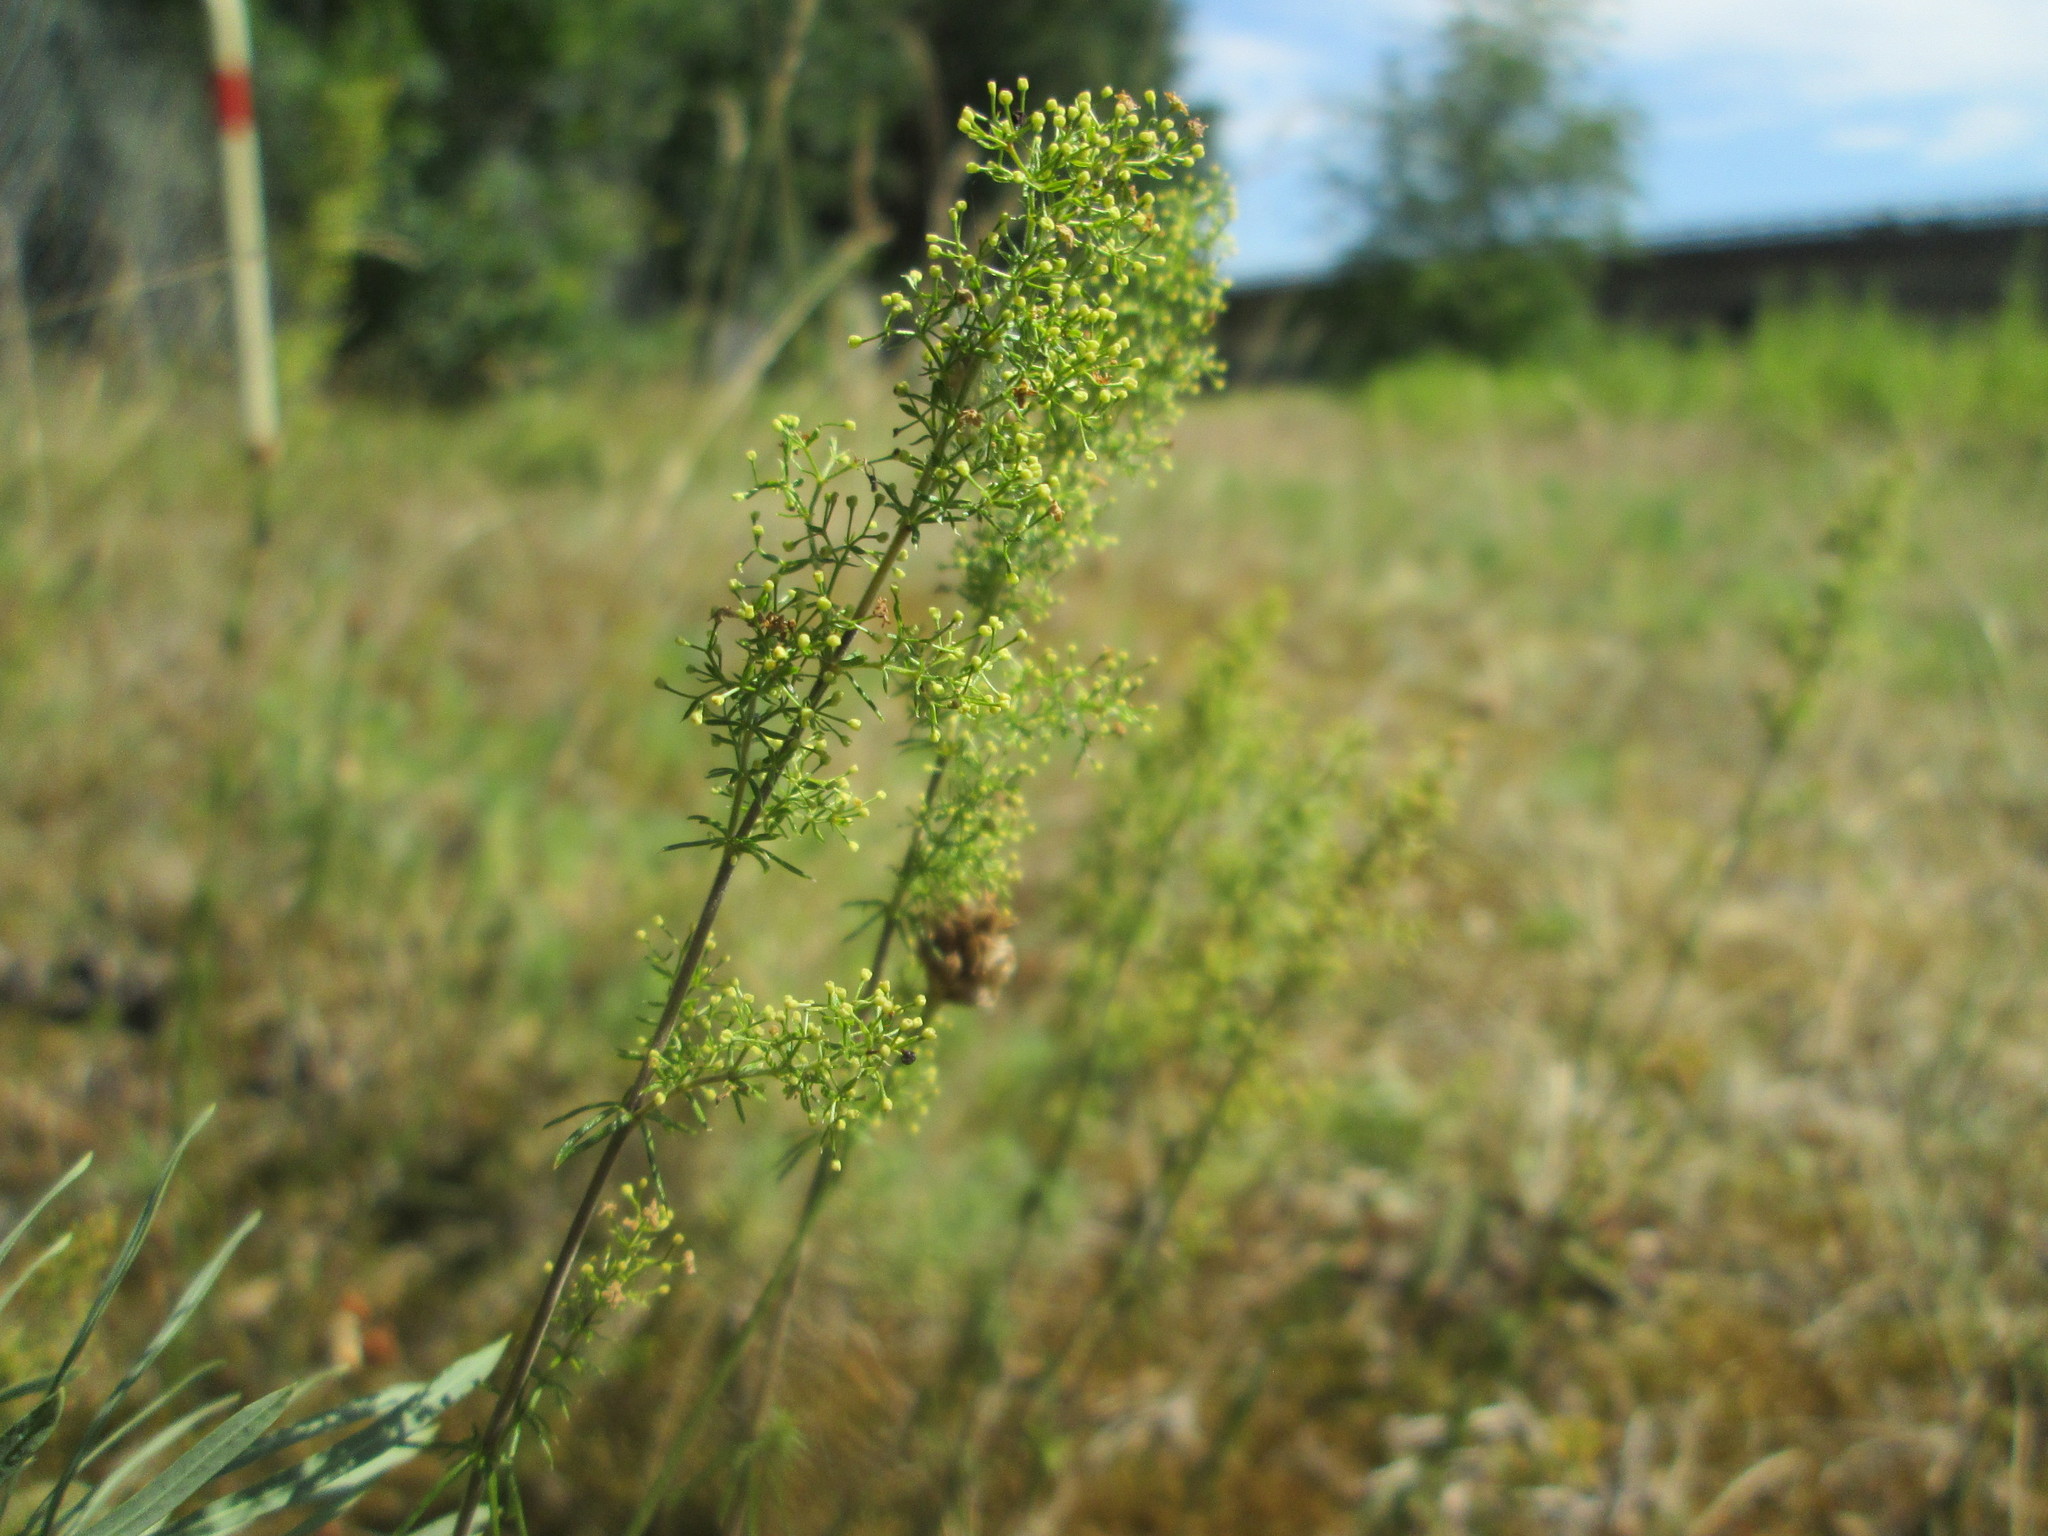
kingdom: Plantae
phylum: Tracheophyta
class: Magnoliopsida
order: Gentianales
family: Rubiaceae
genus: Galium
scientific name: Galium verum
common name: Lady's bedstraw
